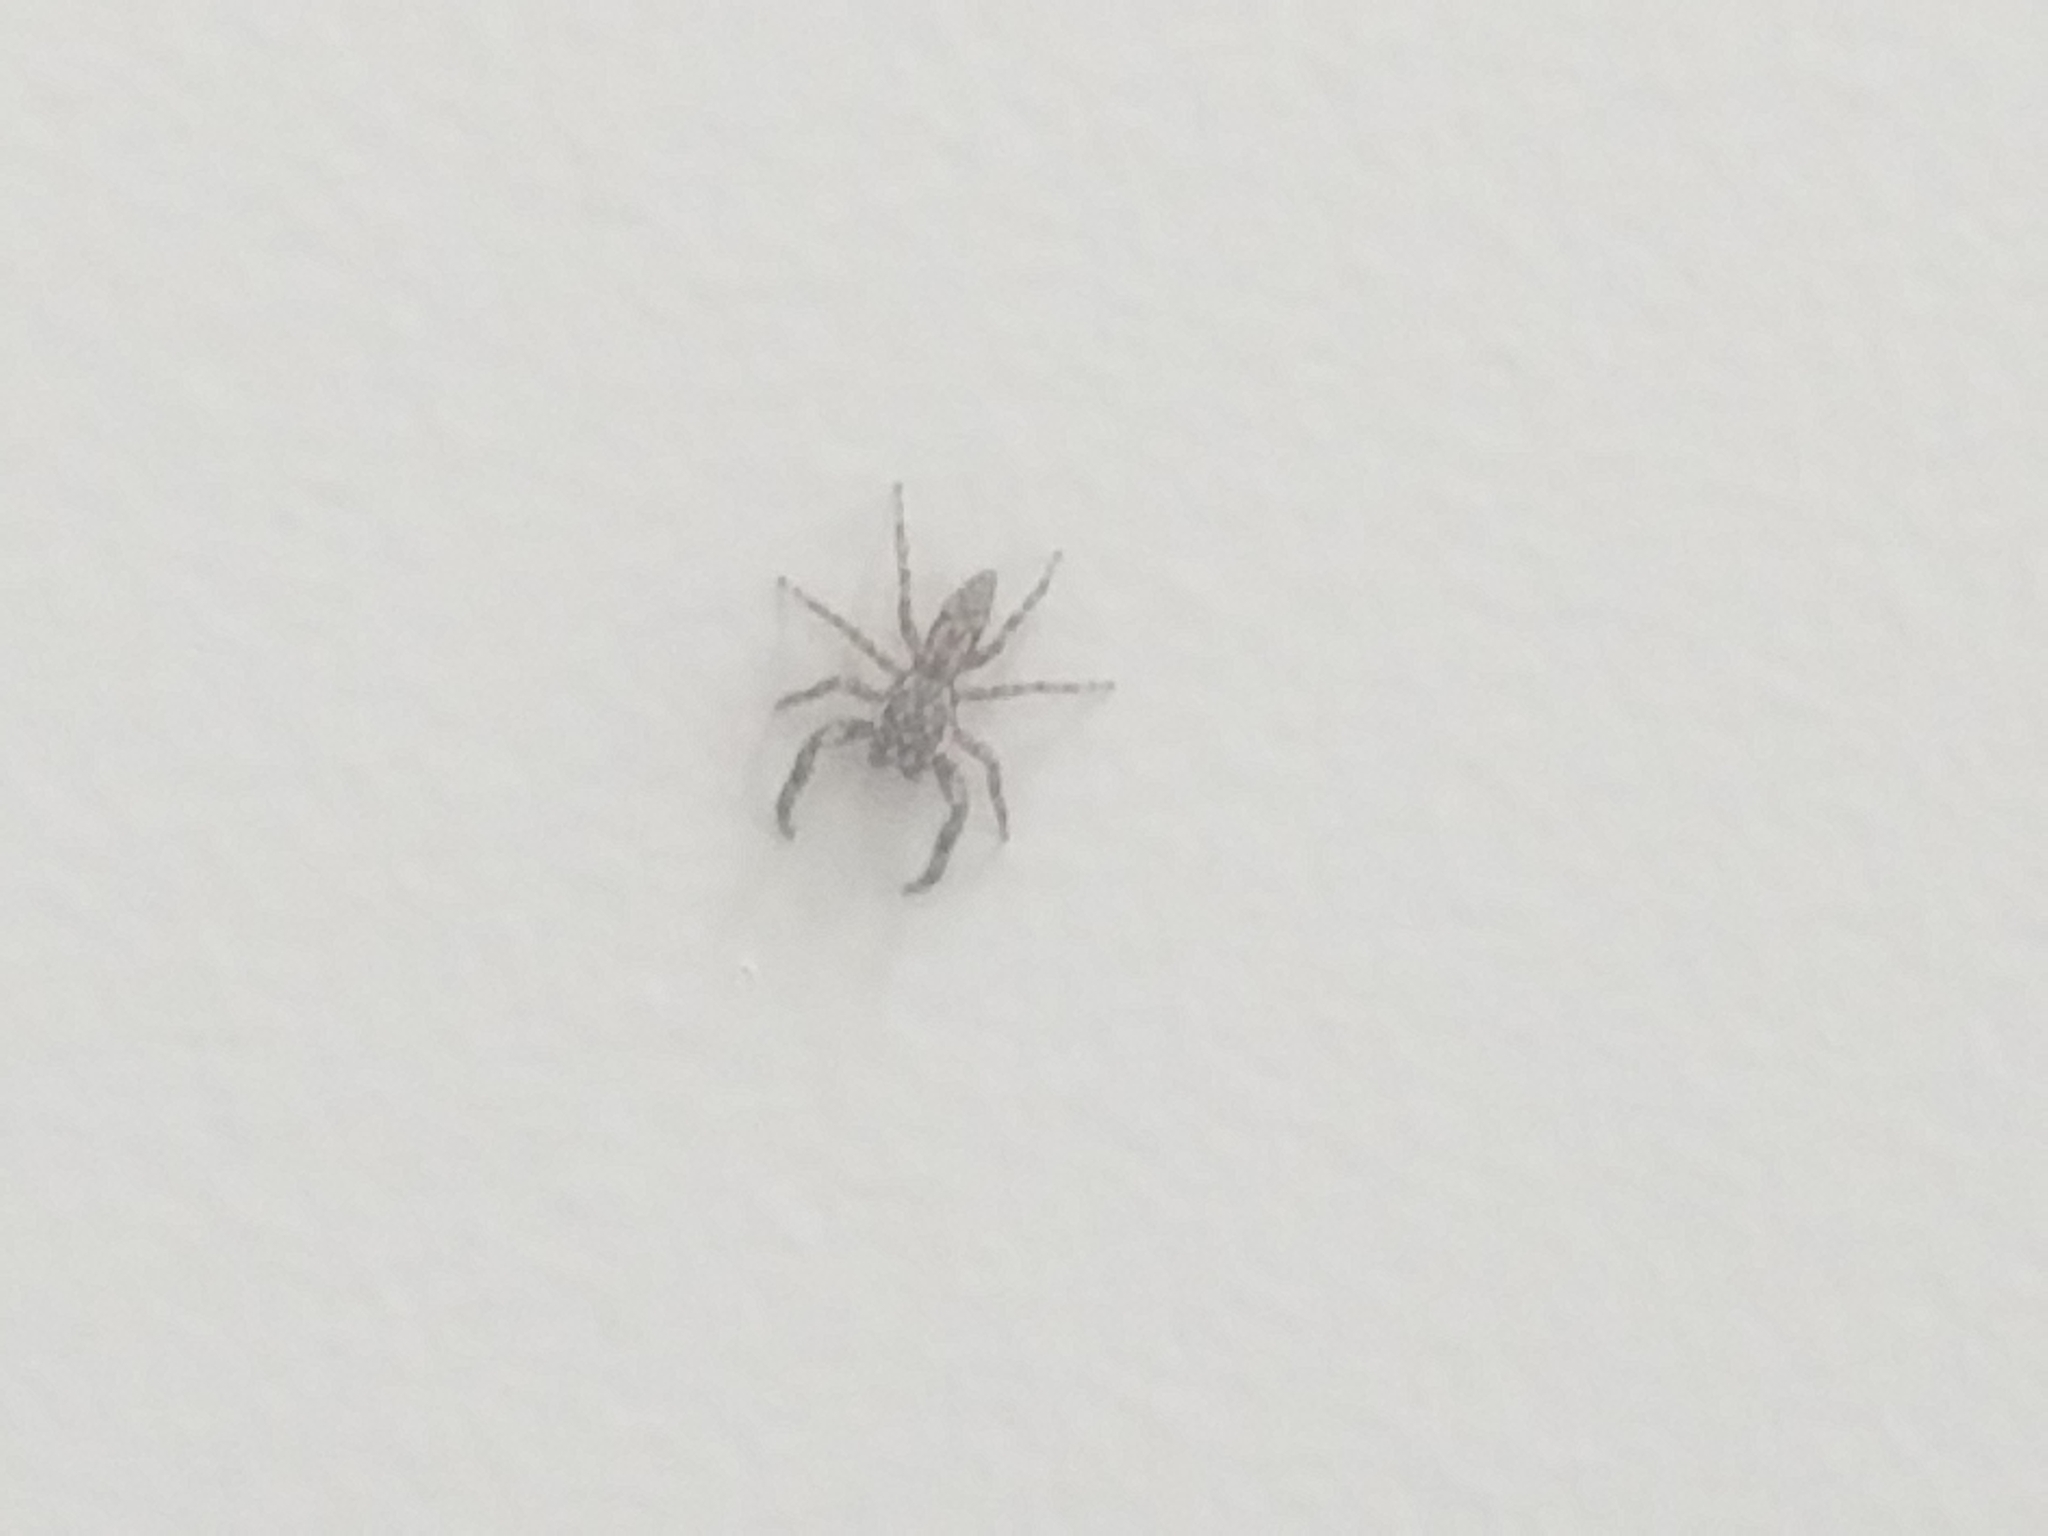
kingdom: Animalia
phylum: Arthropoda
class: Arachnida
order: Araneae
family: Salticidae
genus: Platycryptus
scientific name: Platycryptus undatus
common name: Tan jumping spider
